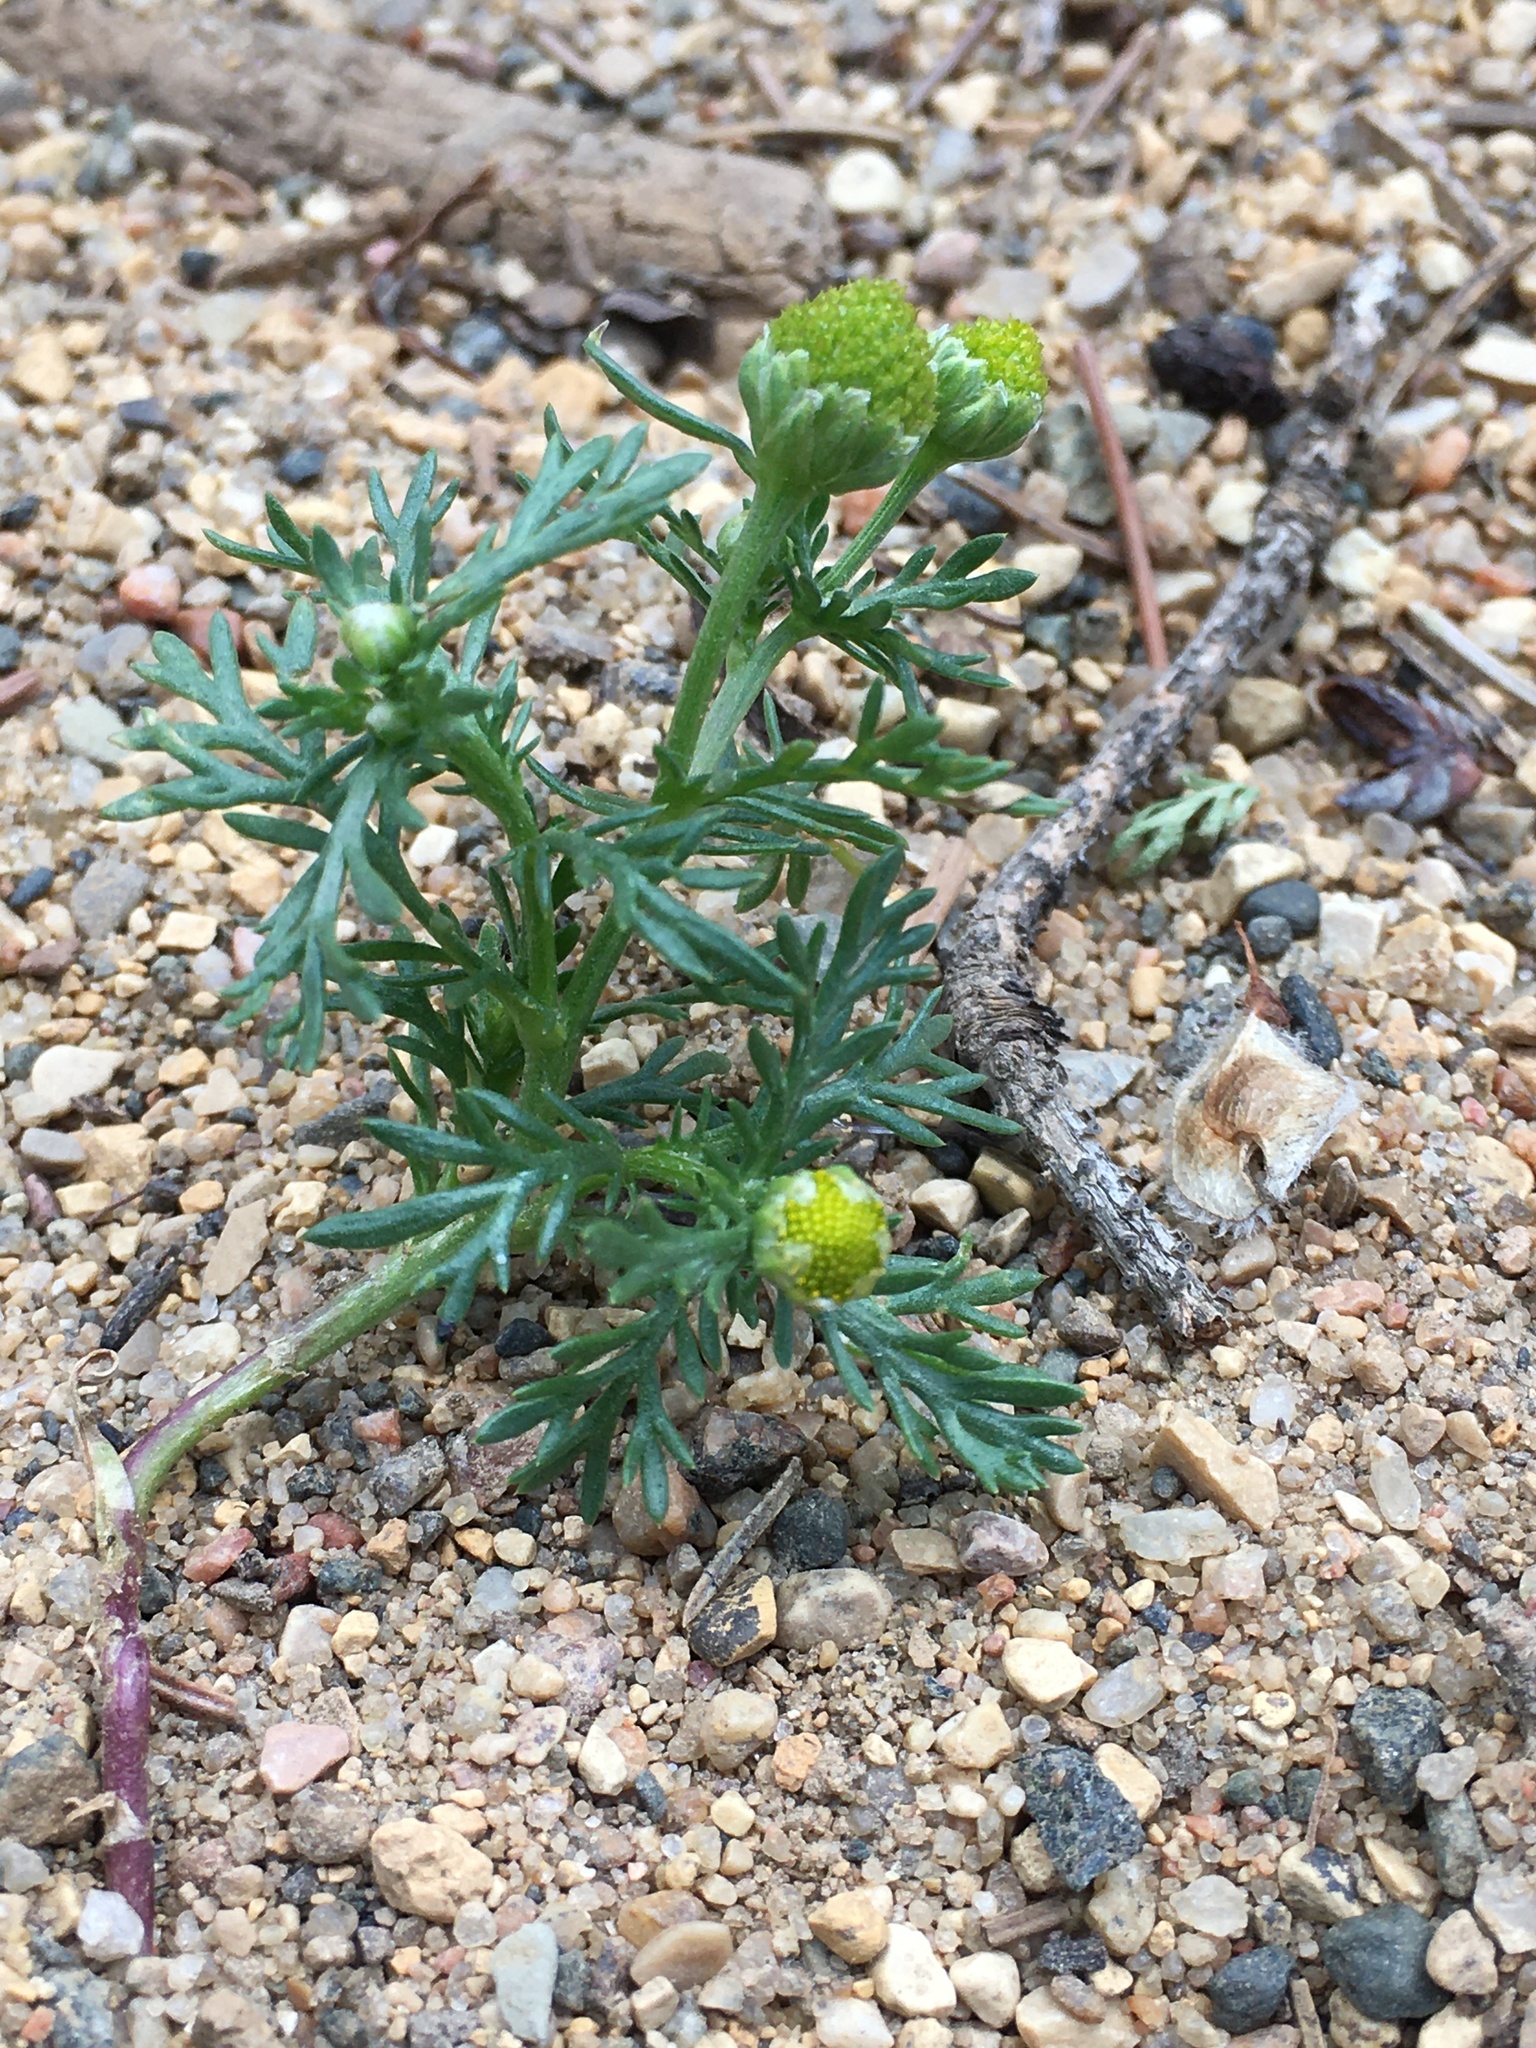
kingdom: Plantae
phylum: Tracheophyta
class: Magnoliopsida
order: Asterales
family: Asteraceae
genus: Matricaria
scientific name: Matricaria discoidea
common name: Disc mayweed
